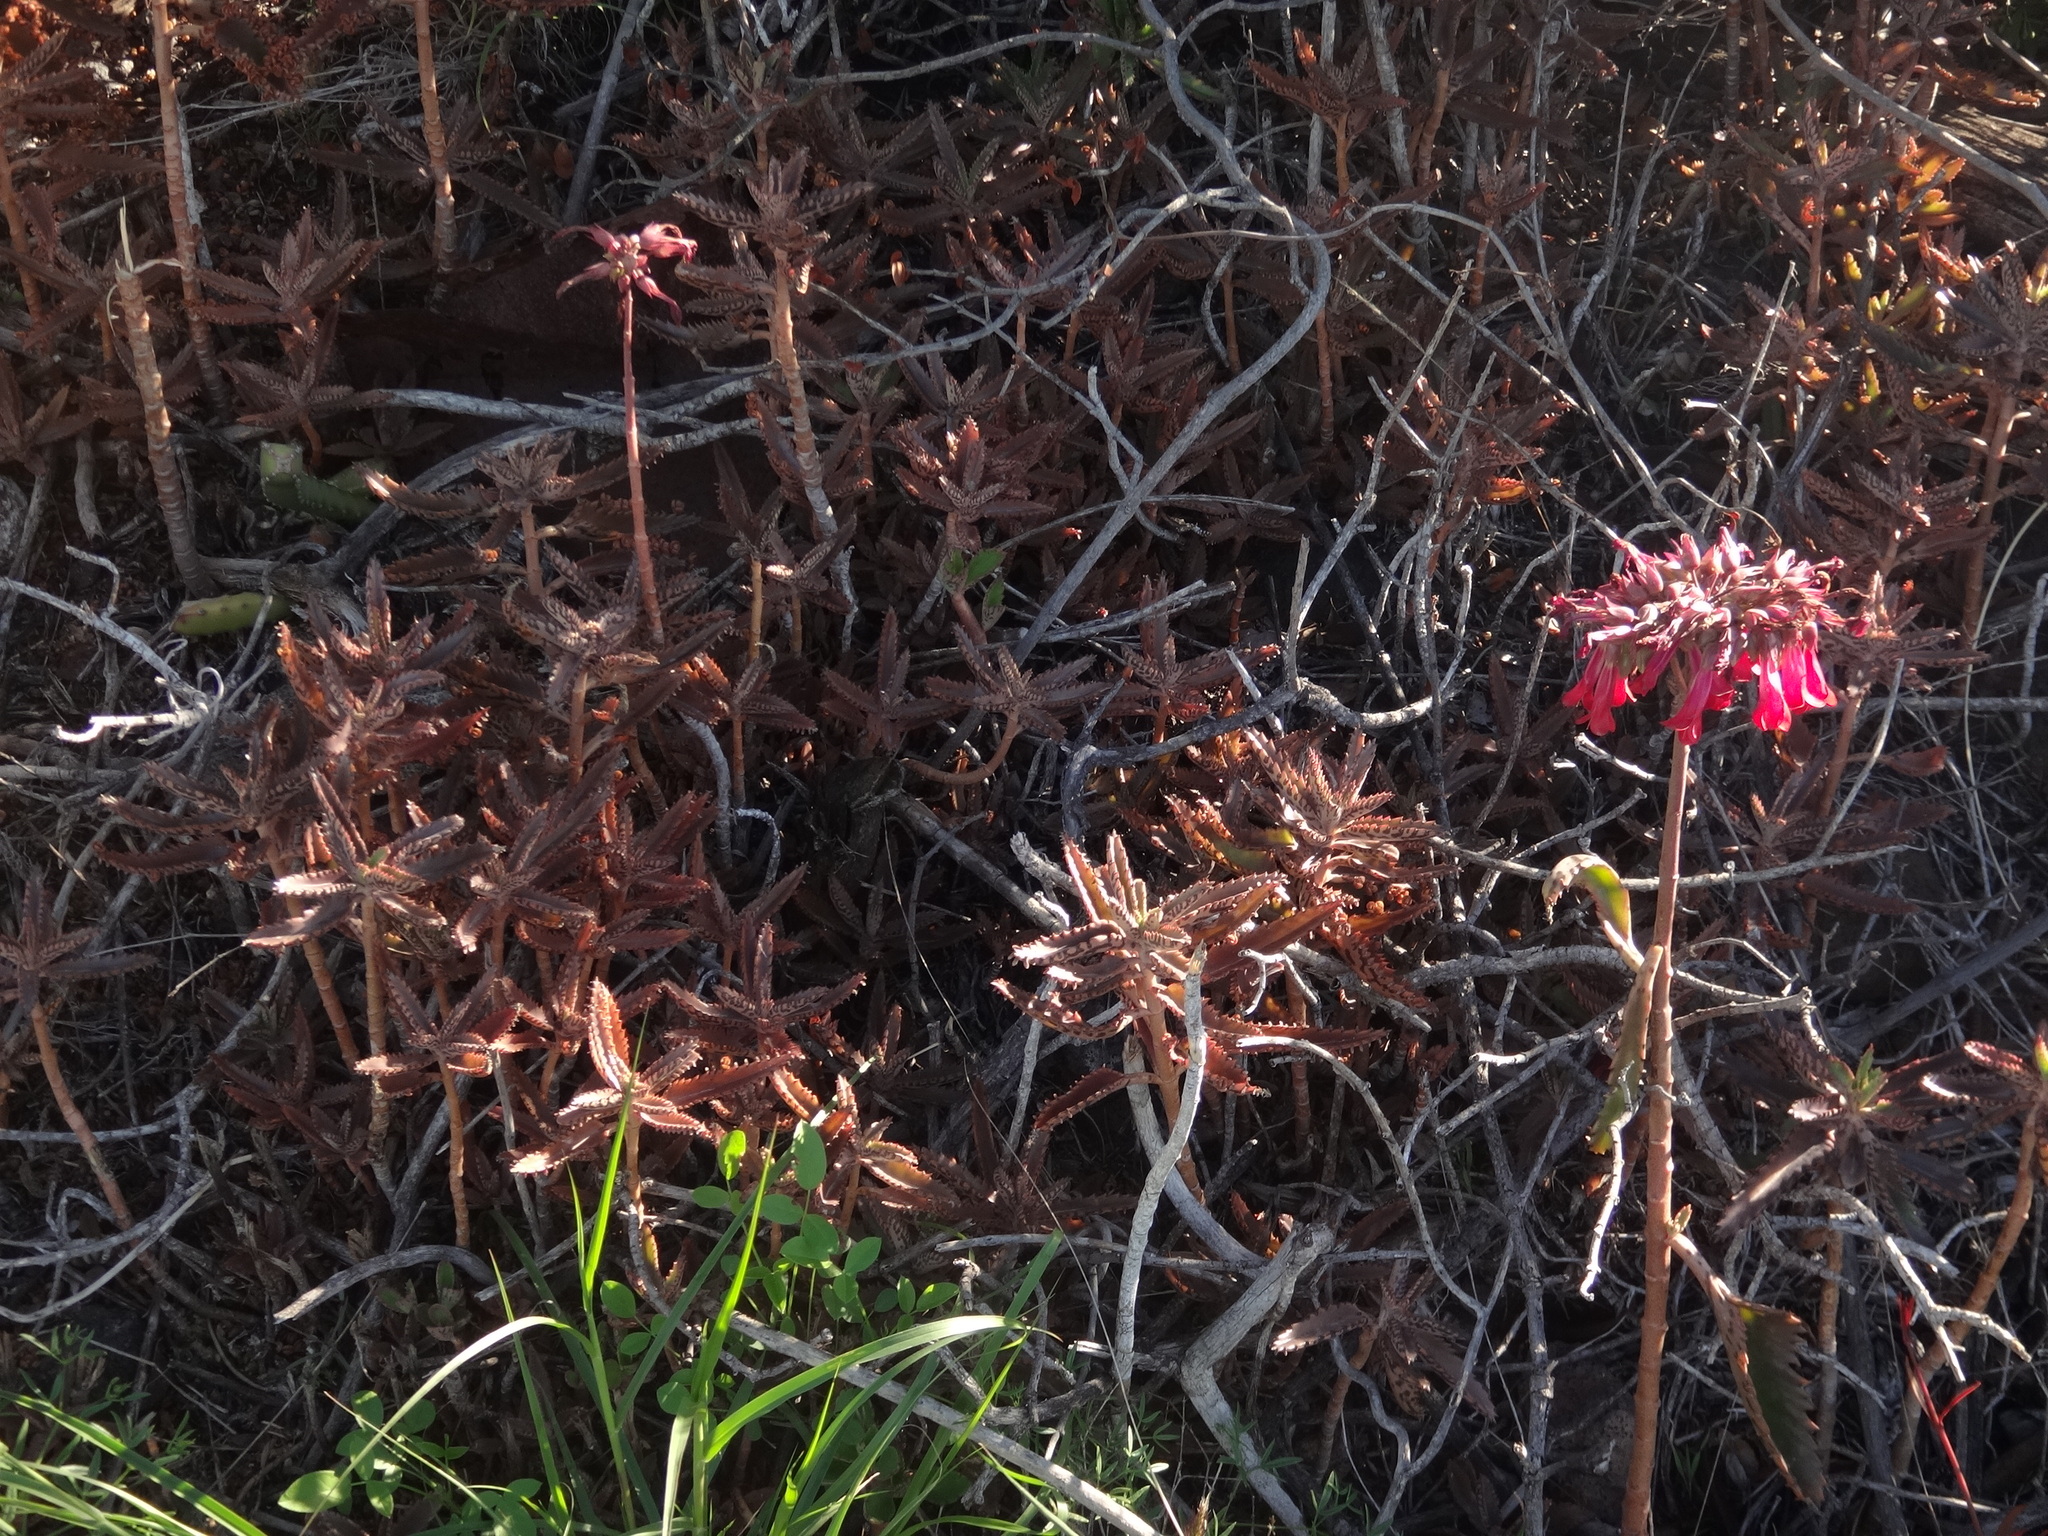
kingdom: Plantae
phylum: Tracheophyta
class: Magnoliopsida
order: Saxifragales
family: Crassulaceae
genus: Kalanchoe
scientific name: Kalanchoe houghtonii
